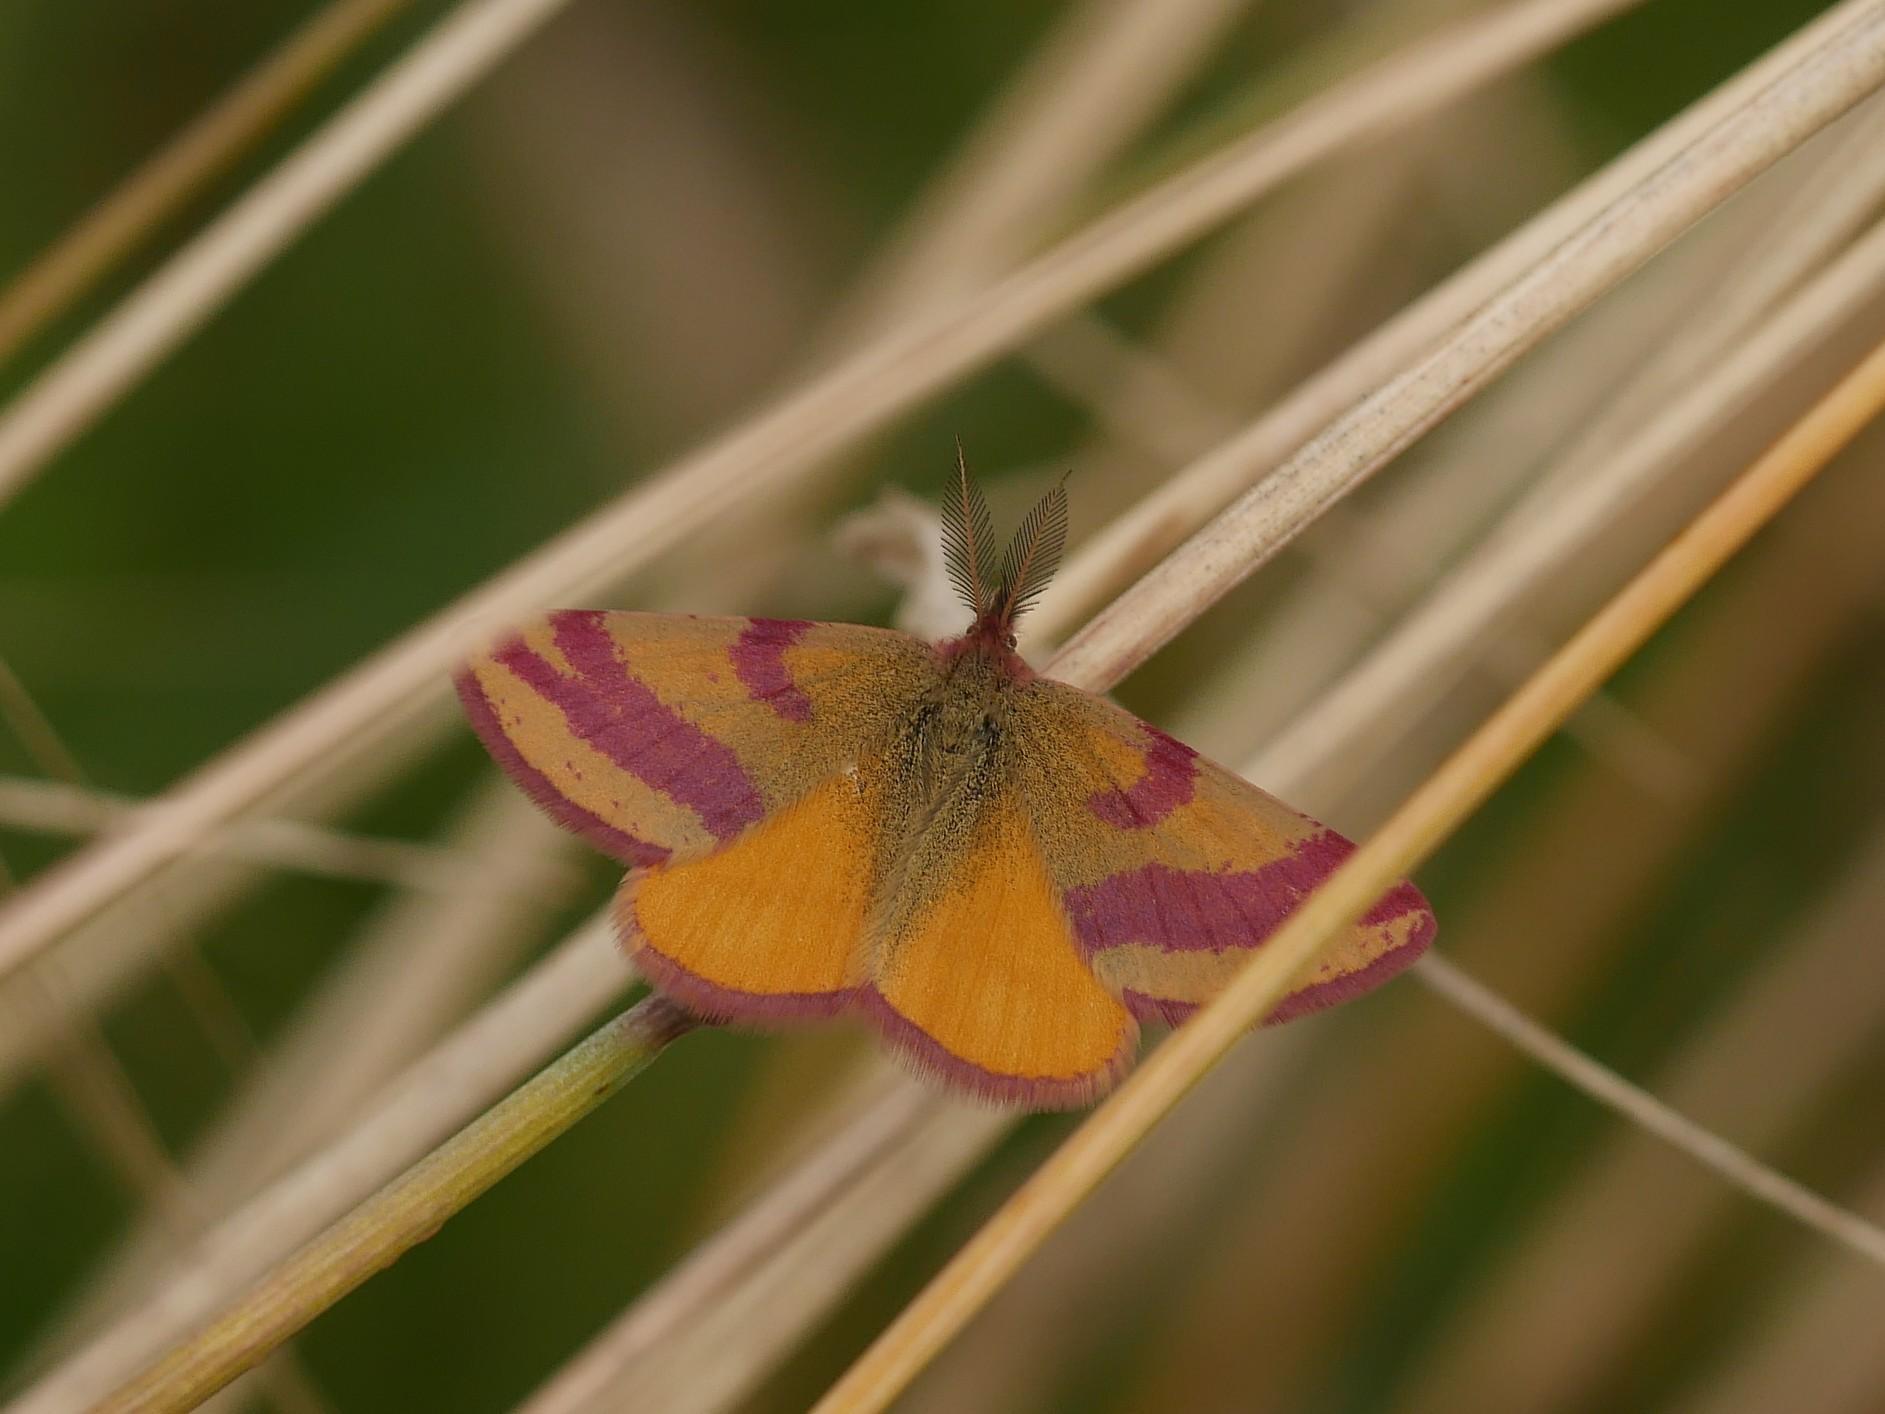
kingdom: Animalia
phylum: Arthropoda
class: Insecta
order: Lepidoptera
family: Geometridae
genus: Lythria
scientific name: Lythria cruentaria
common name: Purple-barred yellow
